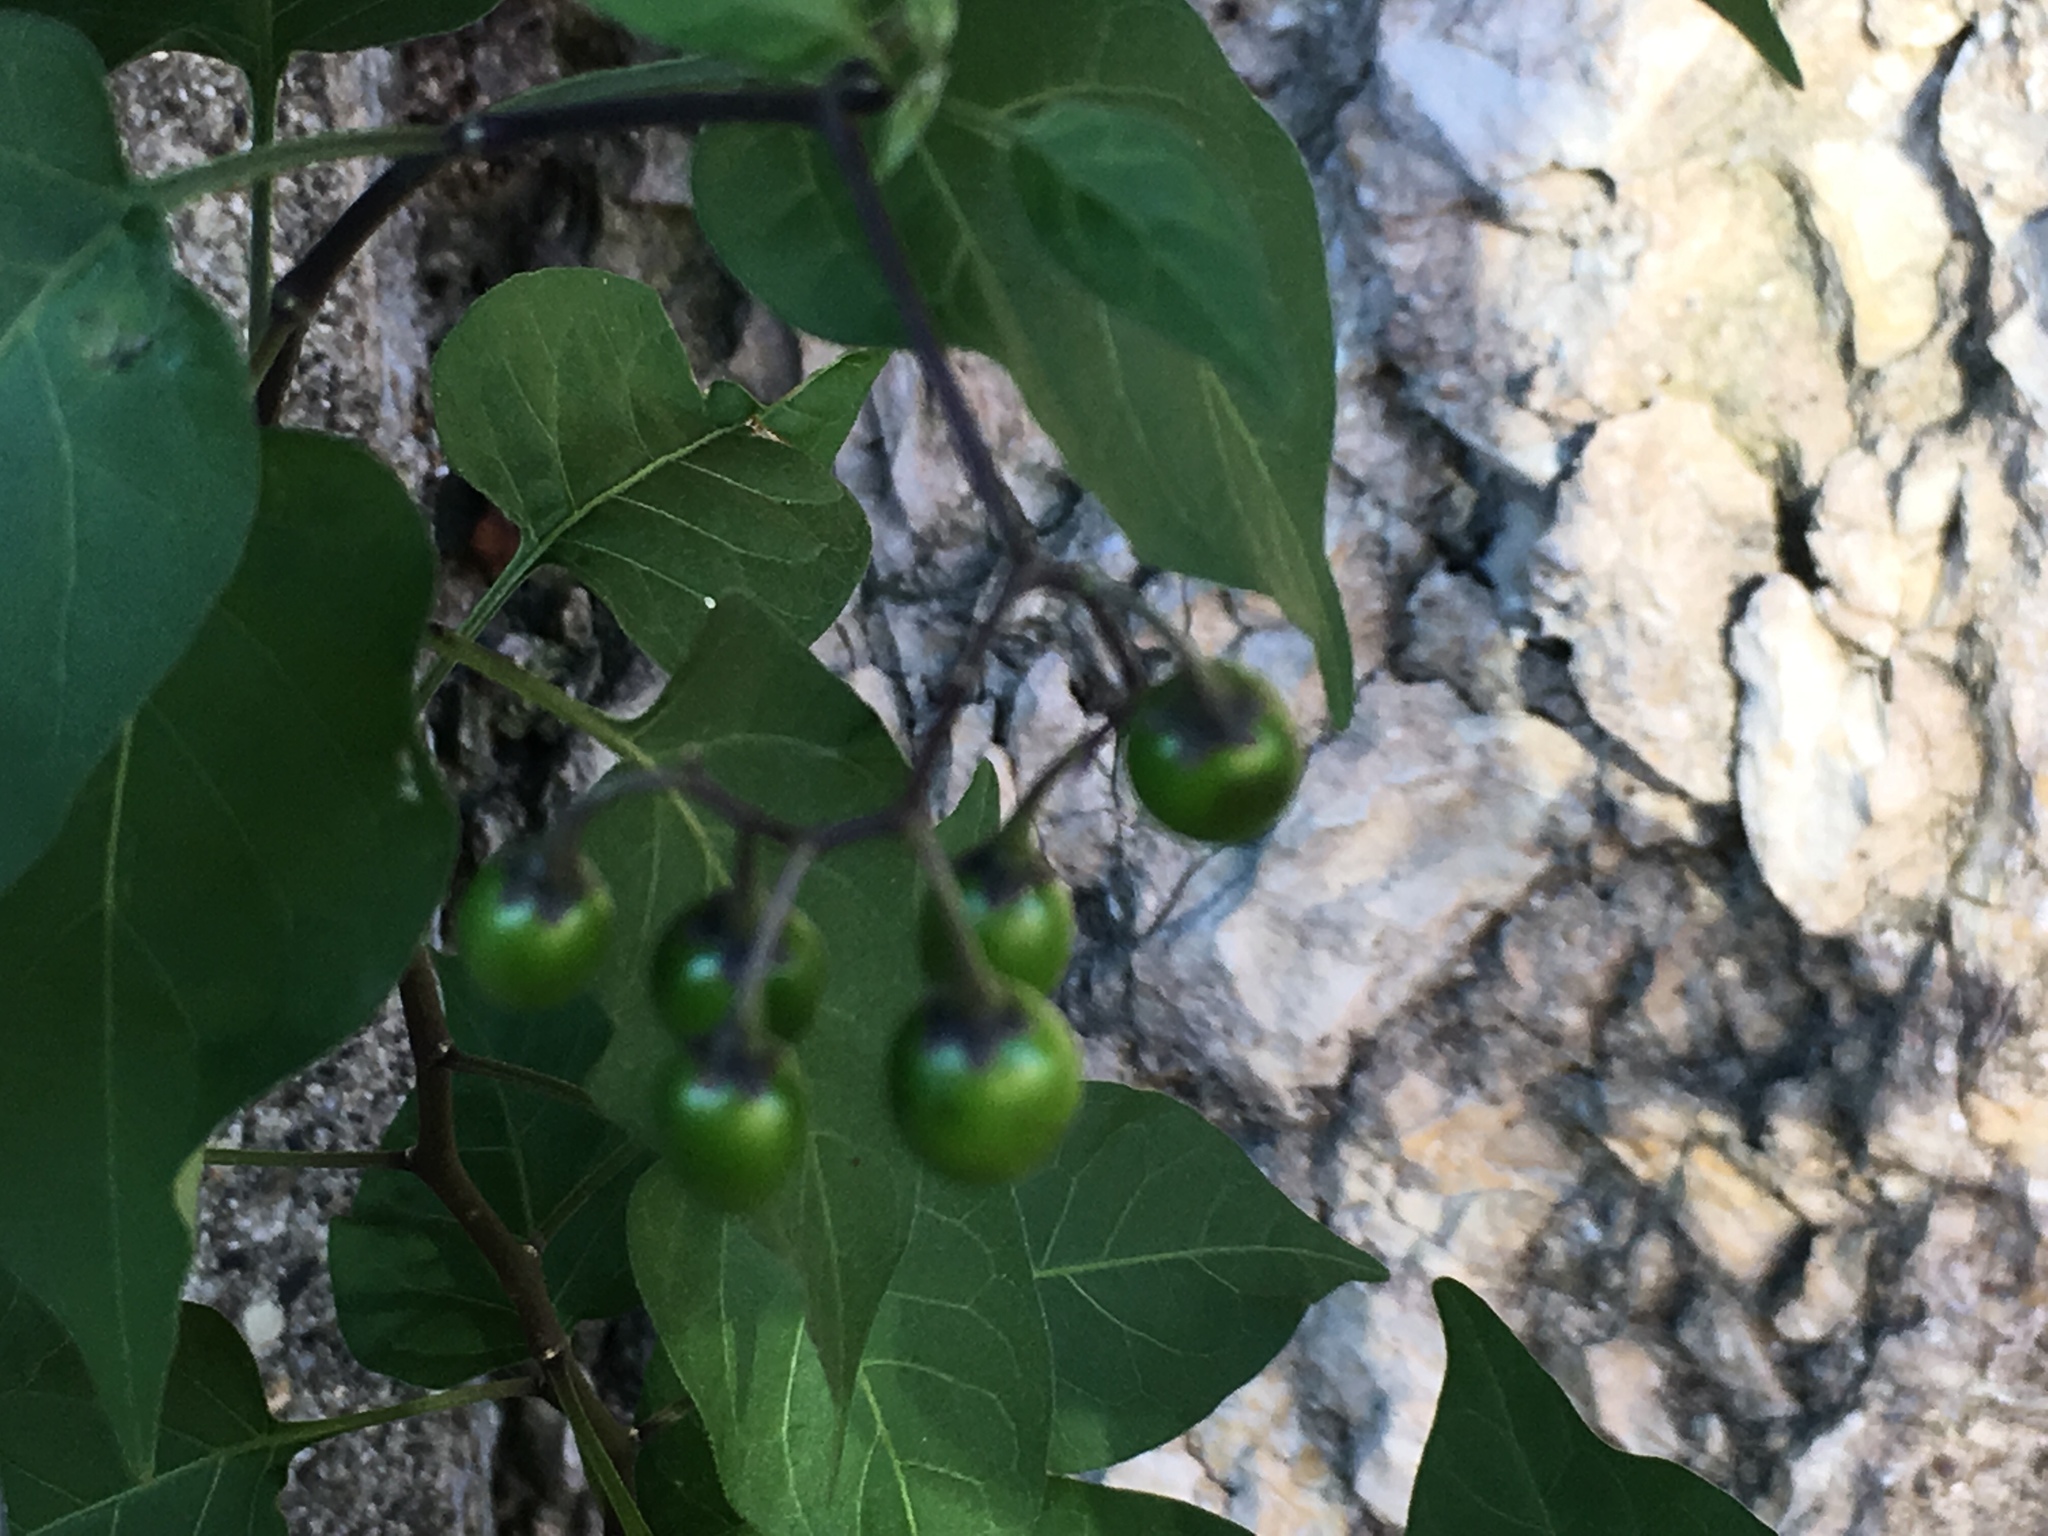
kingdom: Plantae
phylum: Tracheophyta
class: Magnoliopsida
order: Solanales
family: Solanaceae
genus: Solanum
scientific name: Solanum dulcamara
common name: Climbing nightshade
